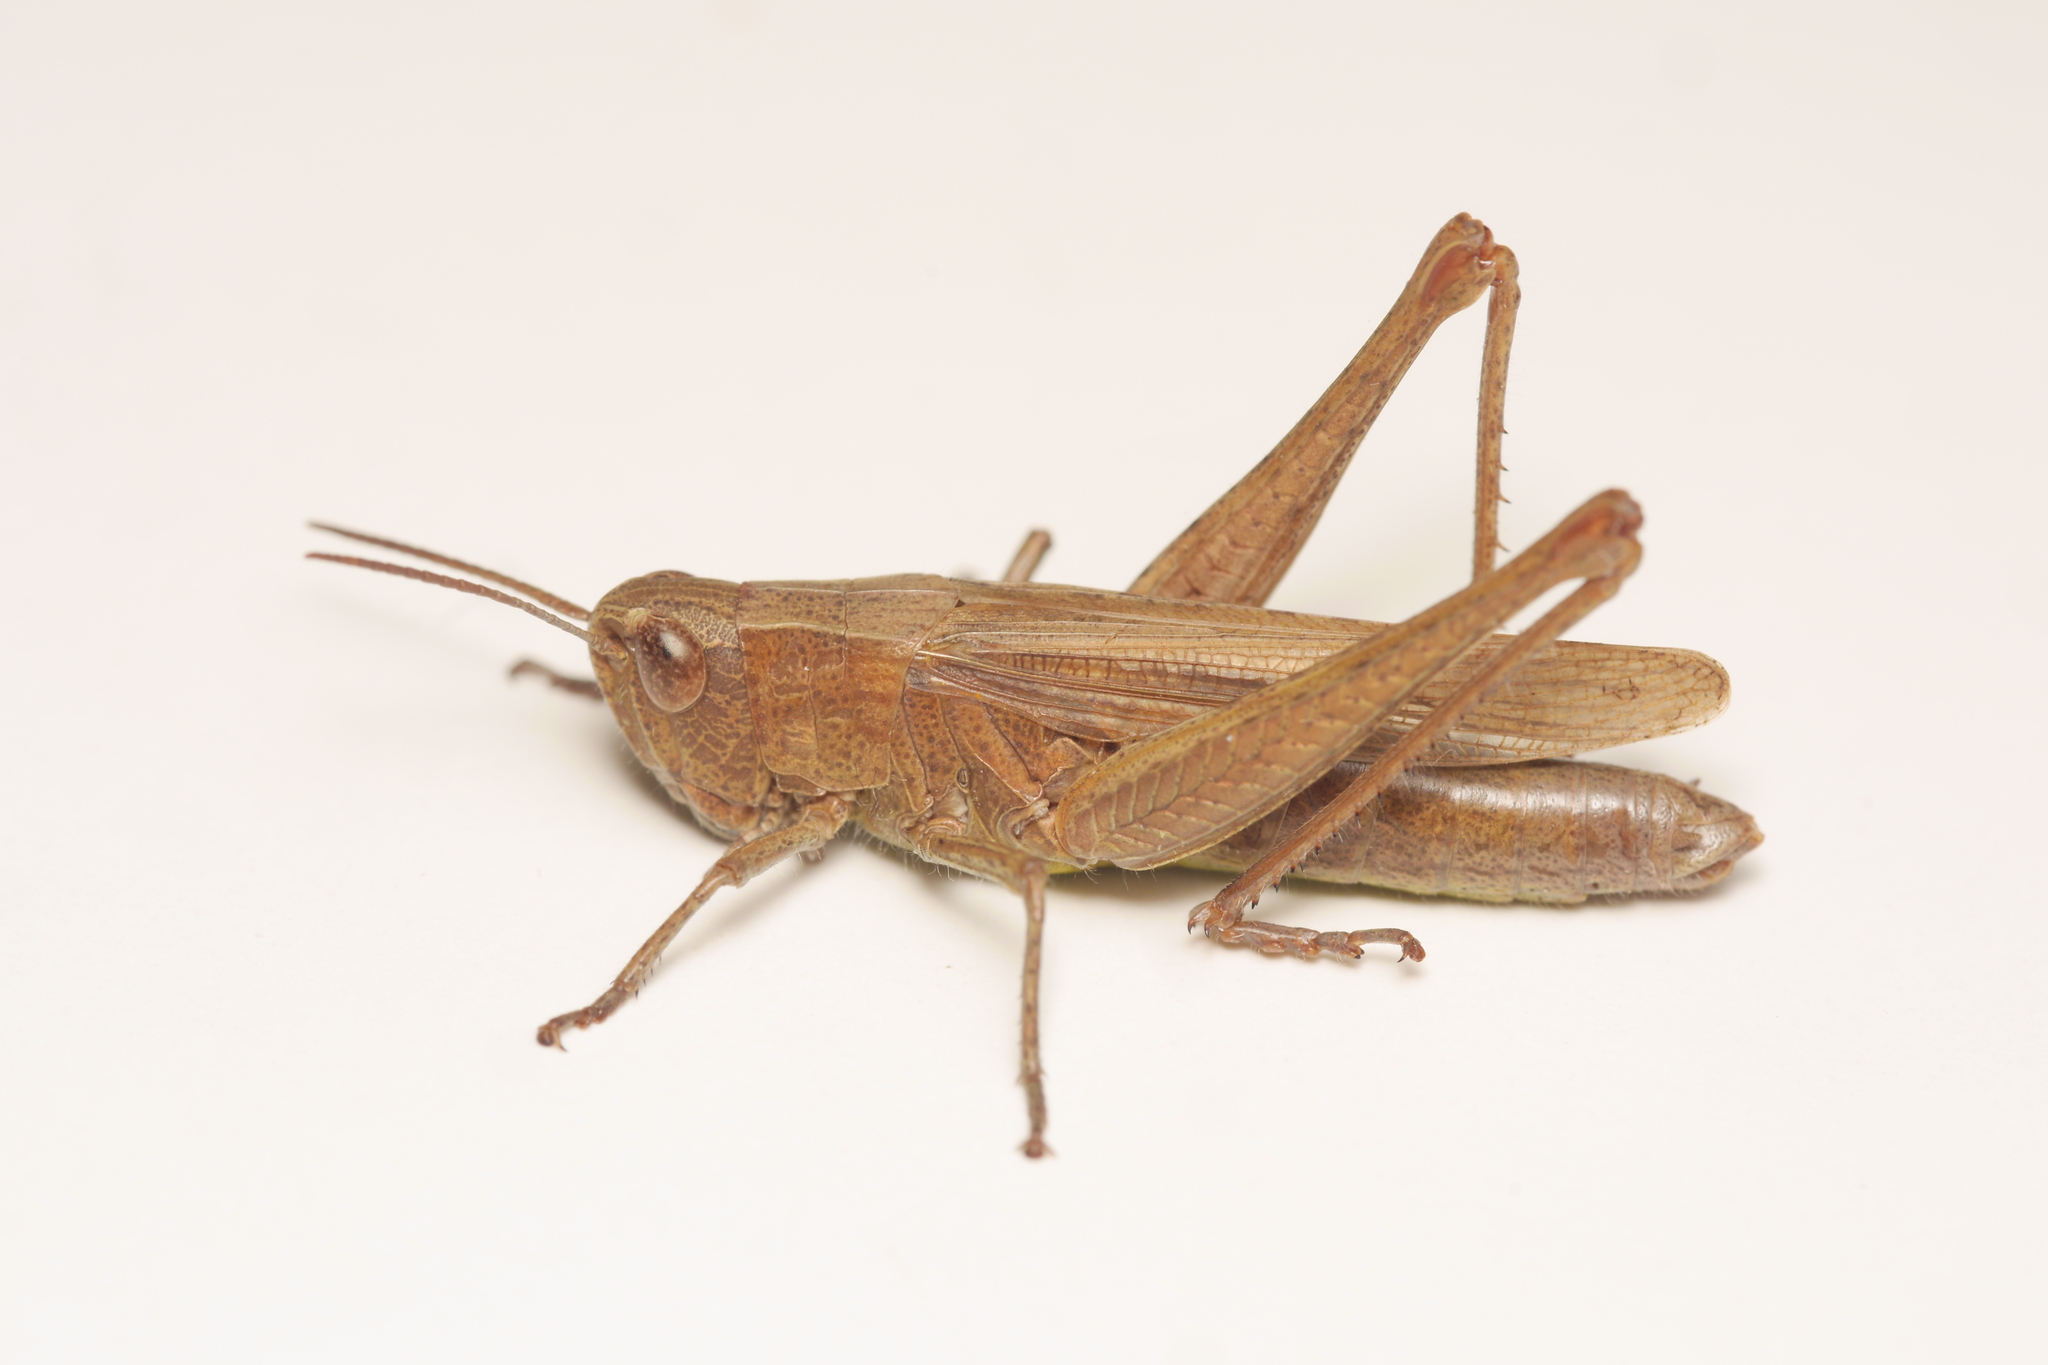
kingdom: Animalia
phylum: Arthropoda
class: Insecta
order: Orthoptera
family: Acrididae
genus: Chorthippus
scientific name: Chorthippus dorsatus
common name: Steppe grasshopper
